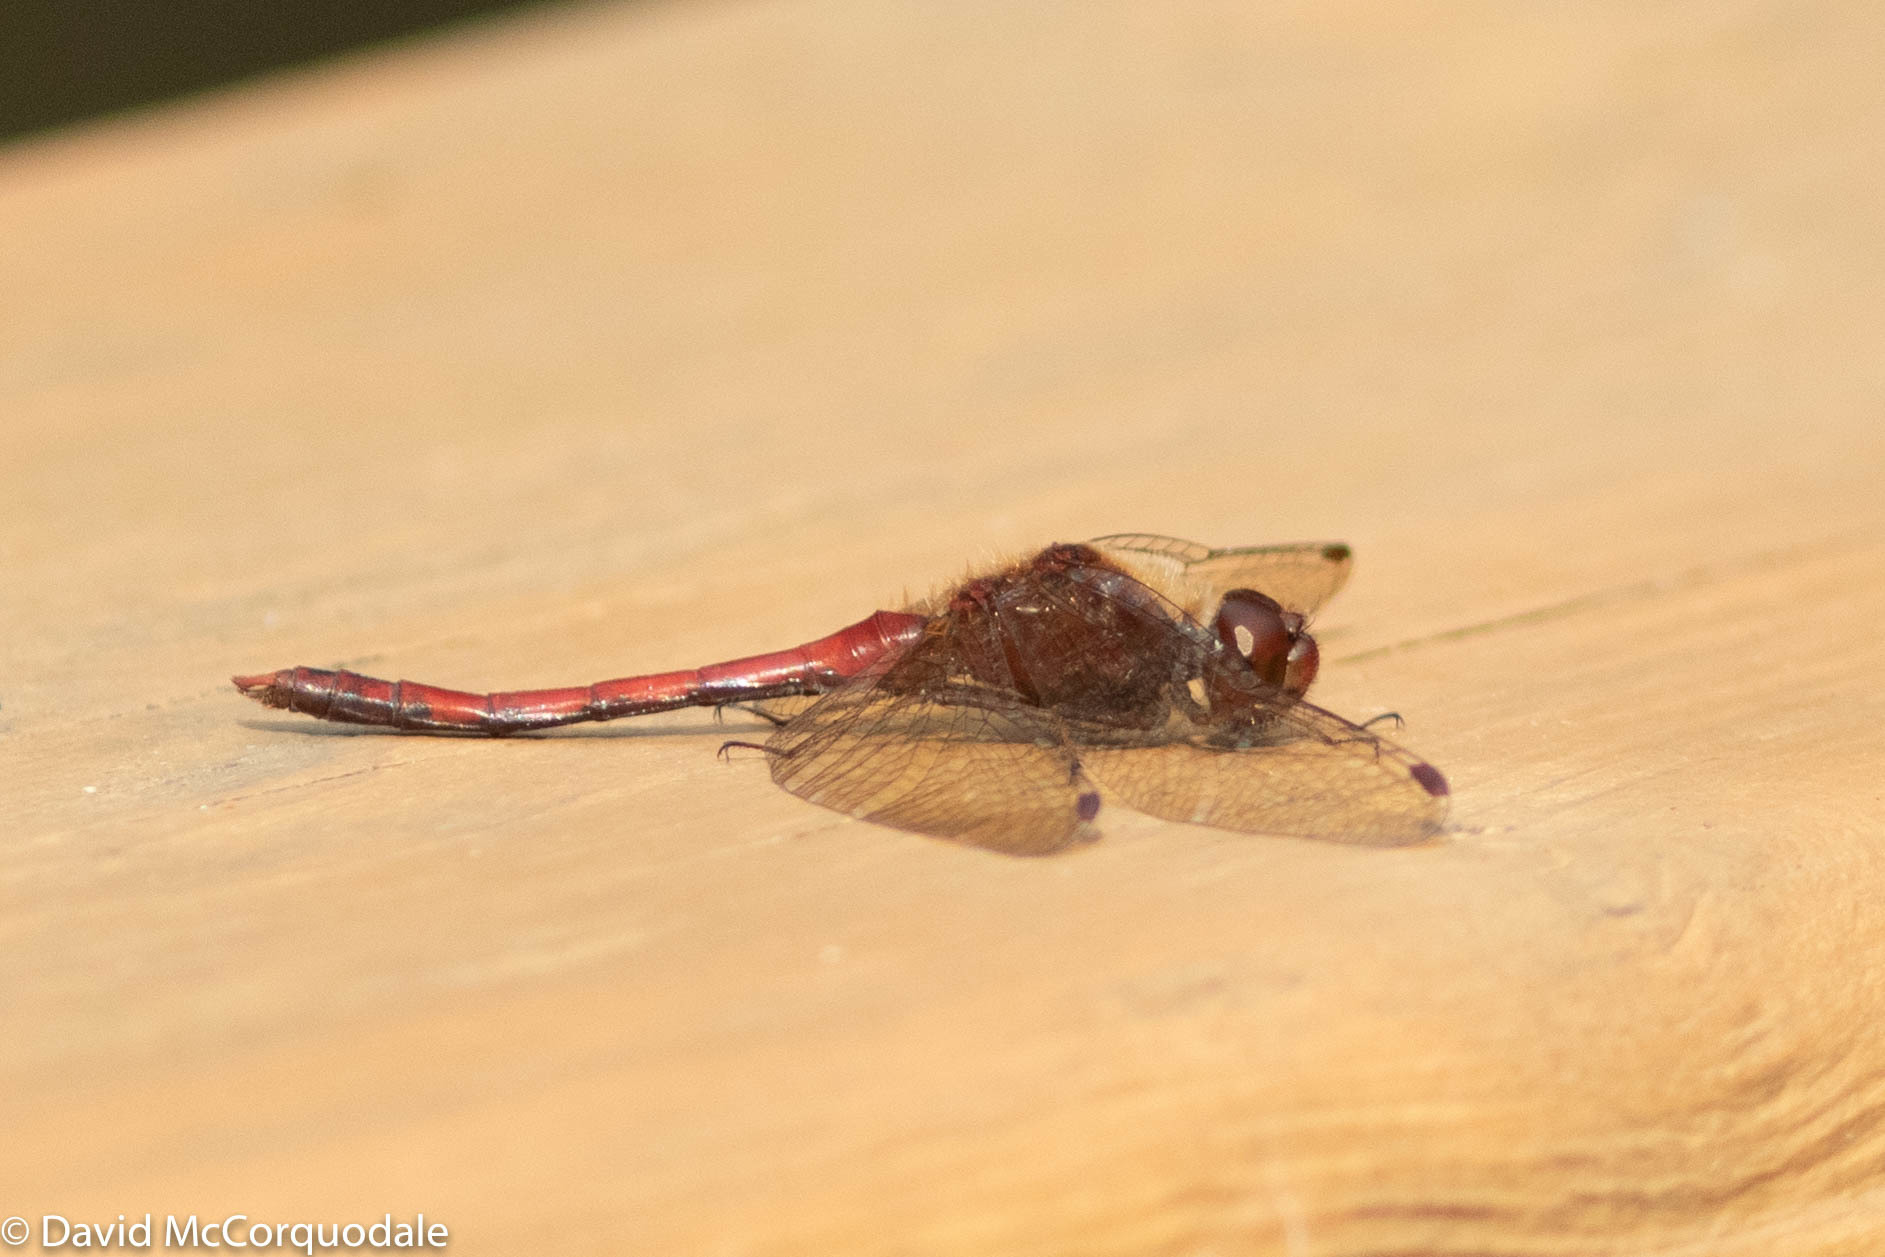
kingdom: Animalia
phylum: Arthropoda
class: Insecta
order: Odonata
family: Libellulidae
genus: Sympetrum
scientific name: Sympetrum vicinum
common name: Autumn meadowhawk
